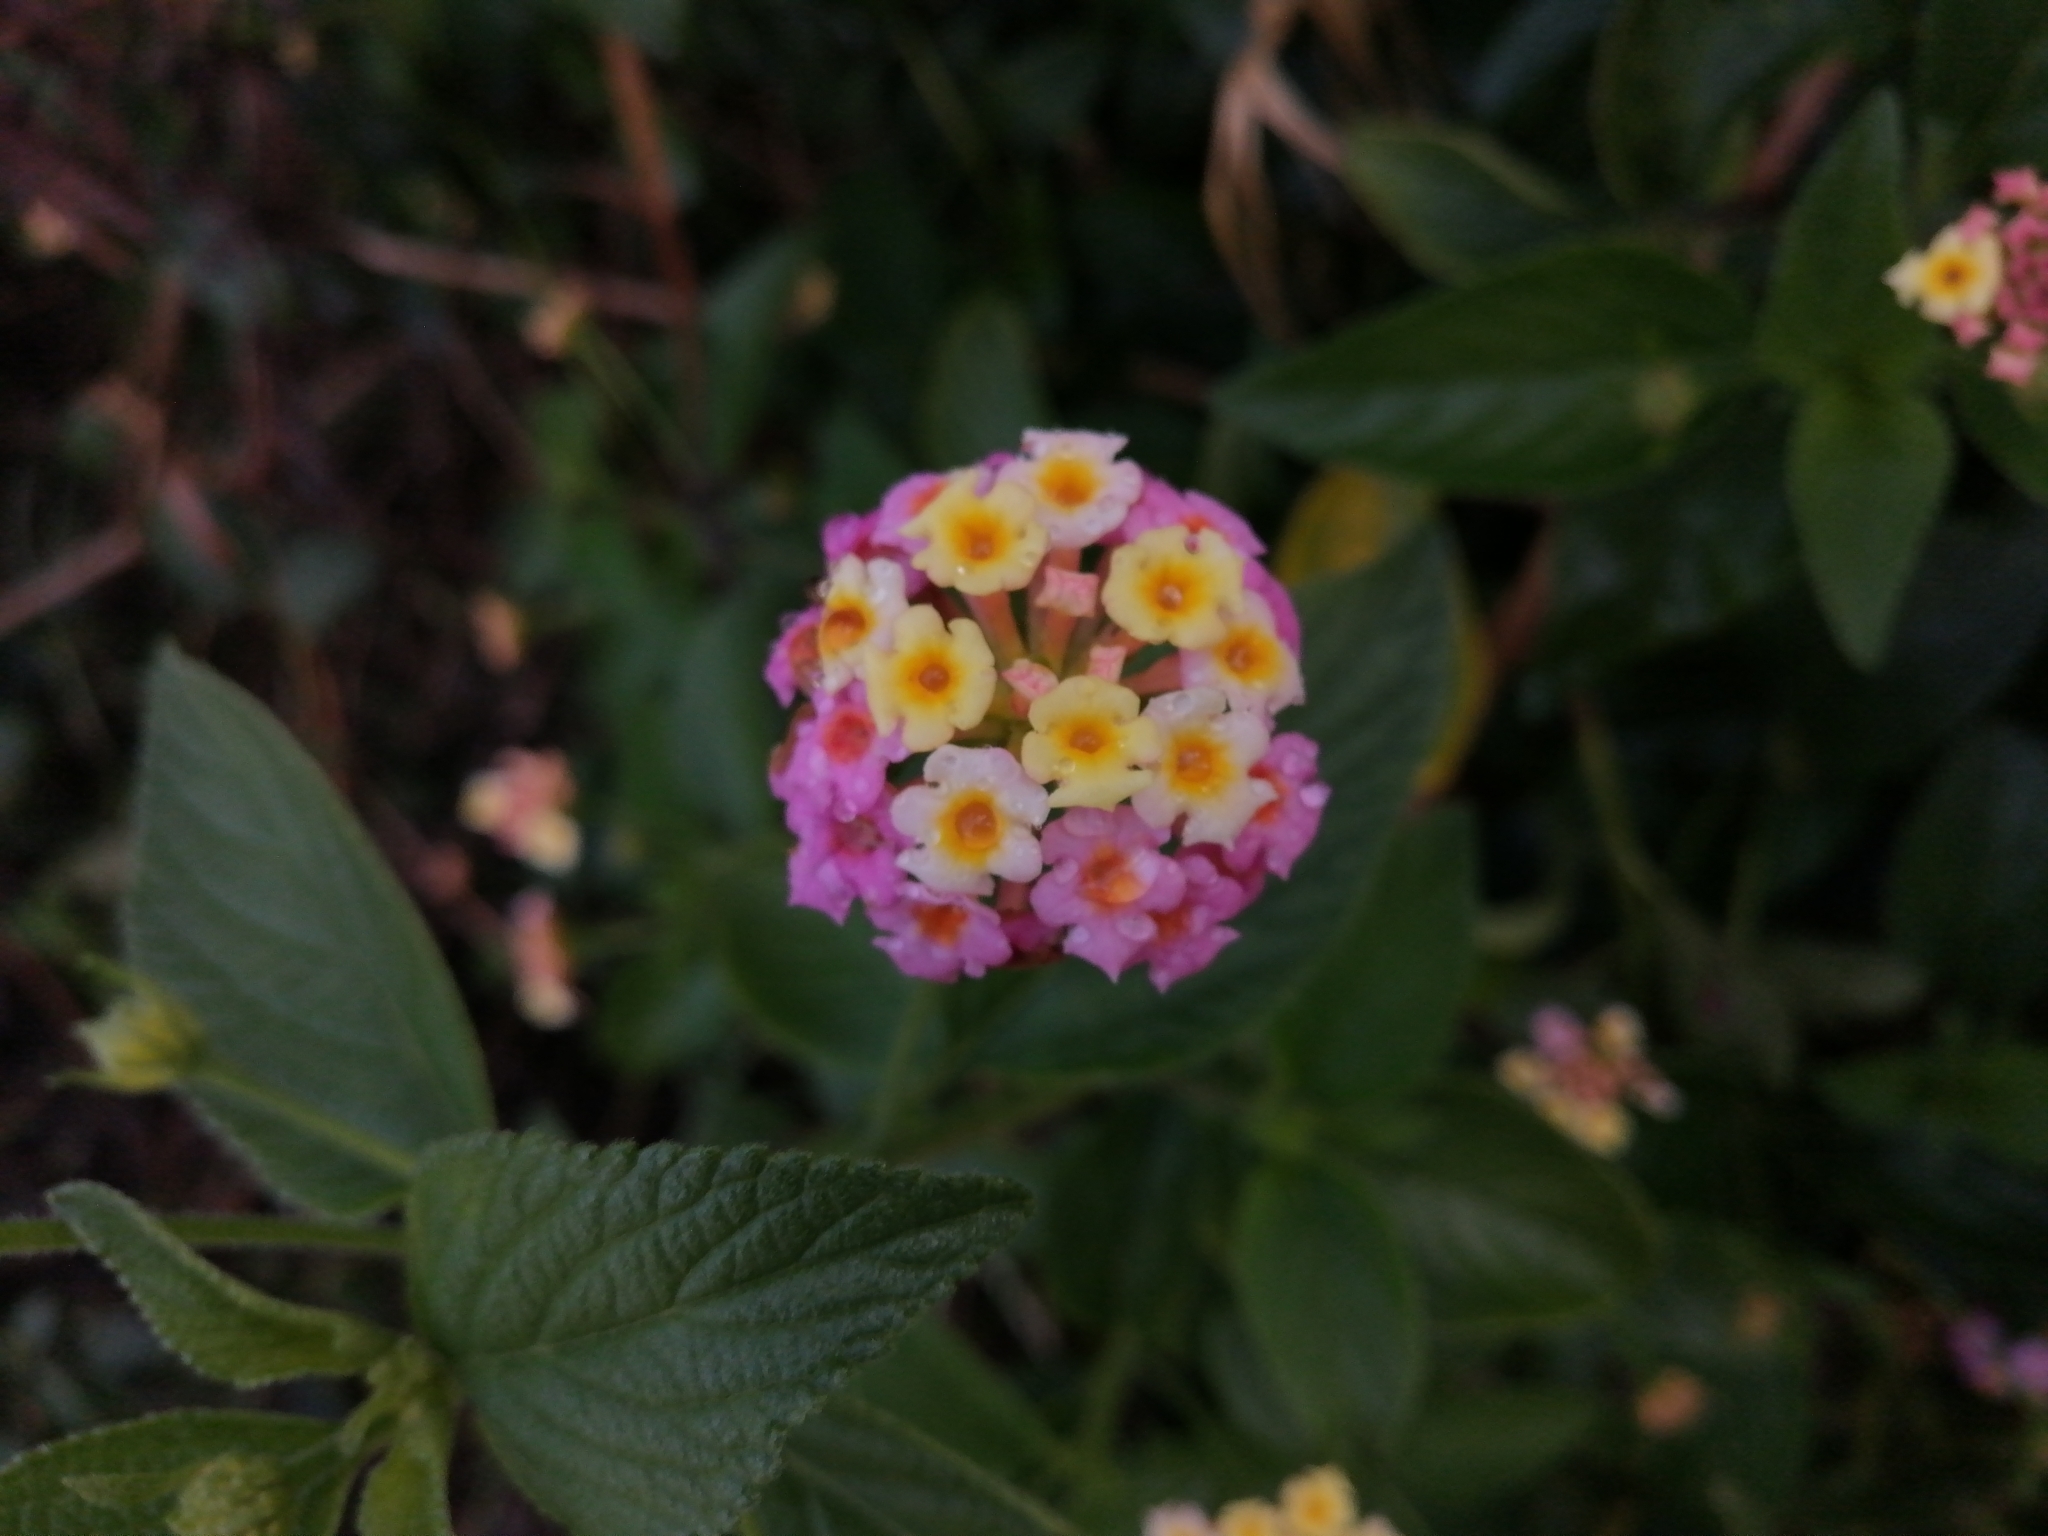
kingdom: Plantae
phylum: Tracheophyta
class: Magnoliopsida
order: Lamiales
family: Verbenaceae
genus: Lantana
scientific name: Lantana camara
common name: Lantana
